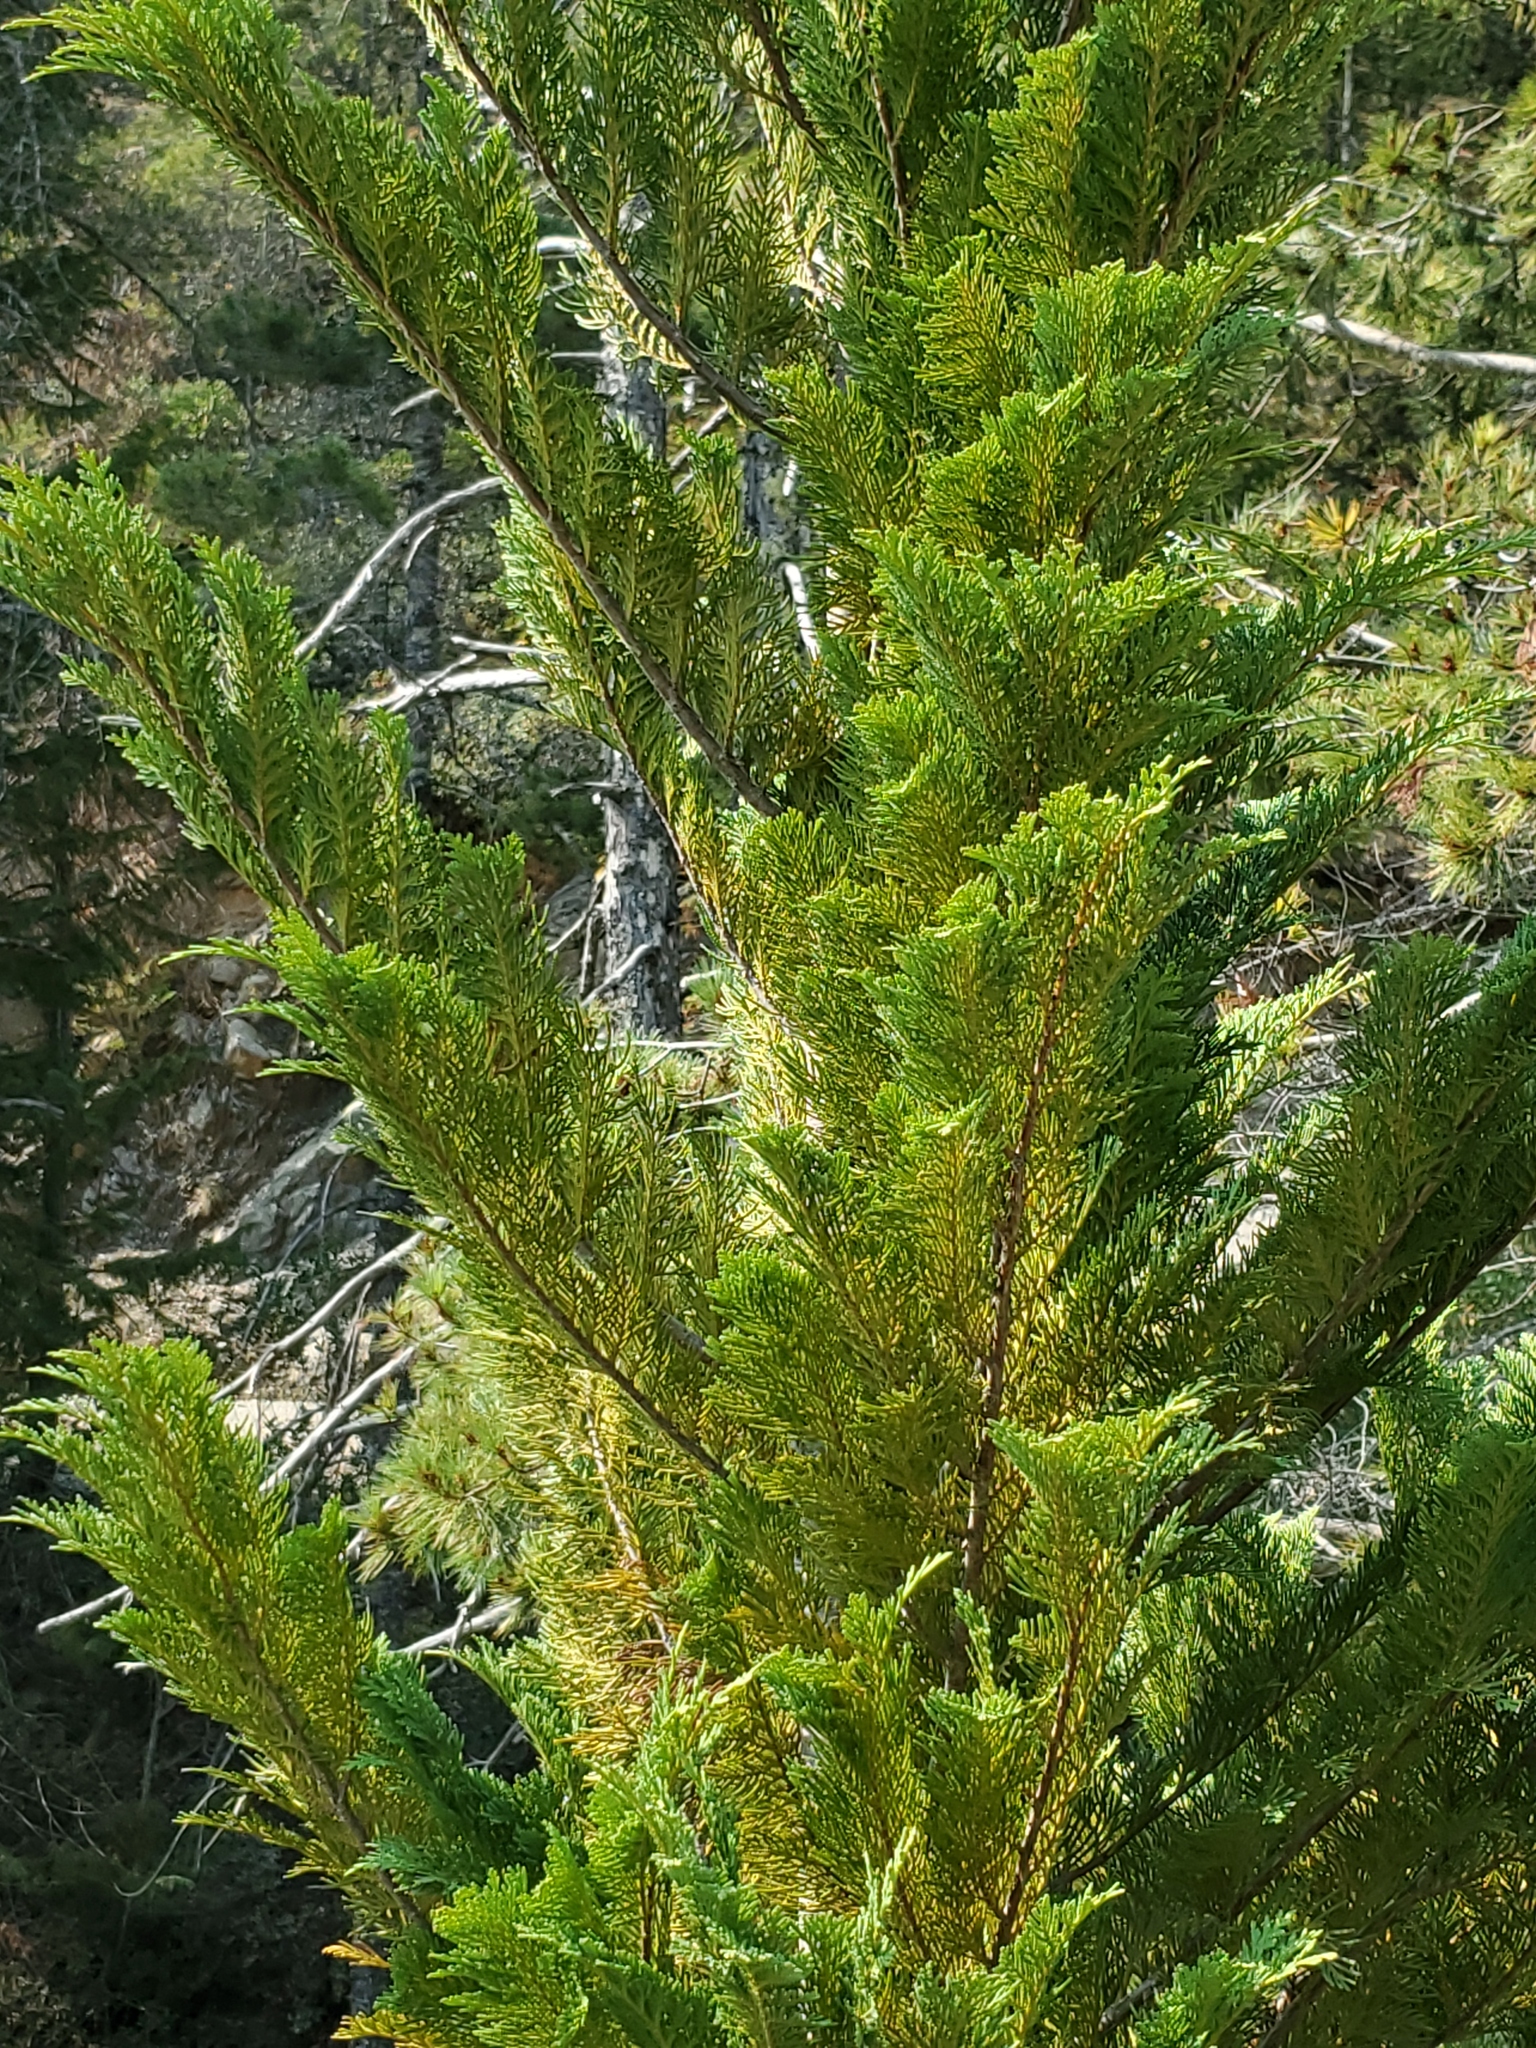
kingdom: Plantae
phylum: Tracheophyta
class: Pinopsida
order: Pinales
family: Cupressaceae
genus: Chamaecyparis
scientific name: Chamaecyparis lawsoniana
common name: Lawson's cypress
